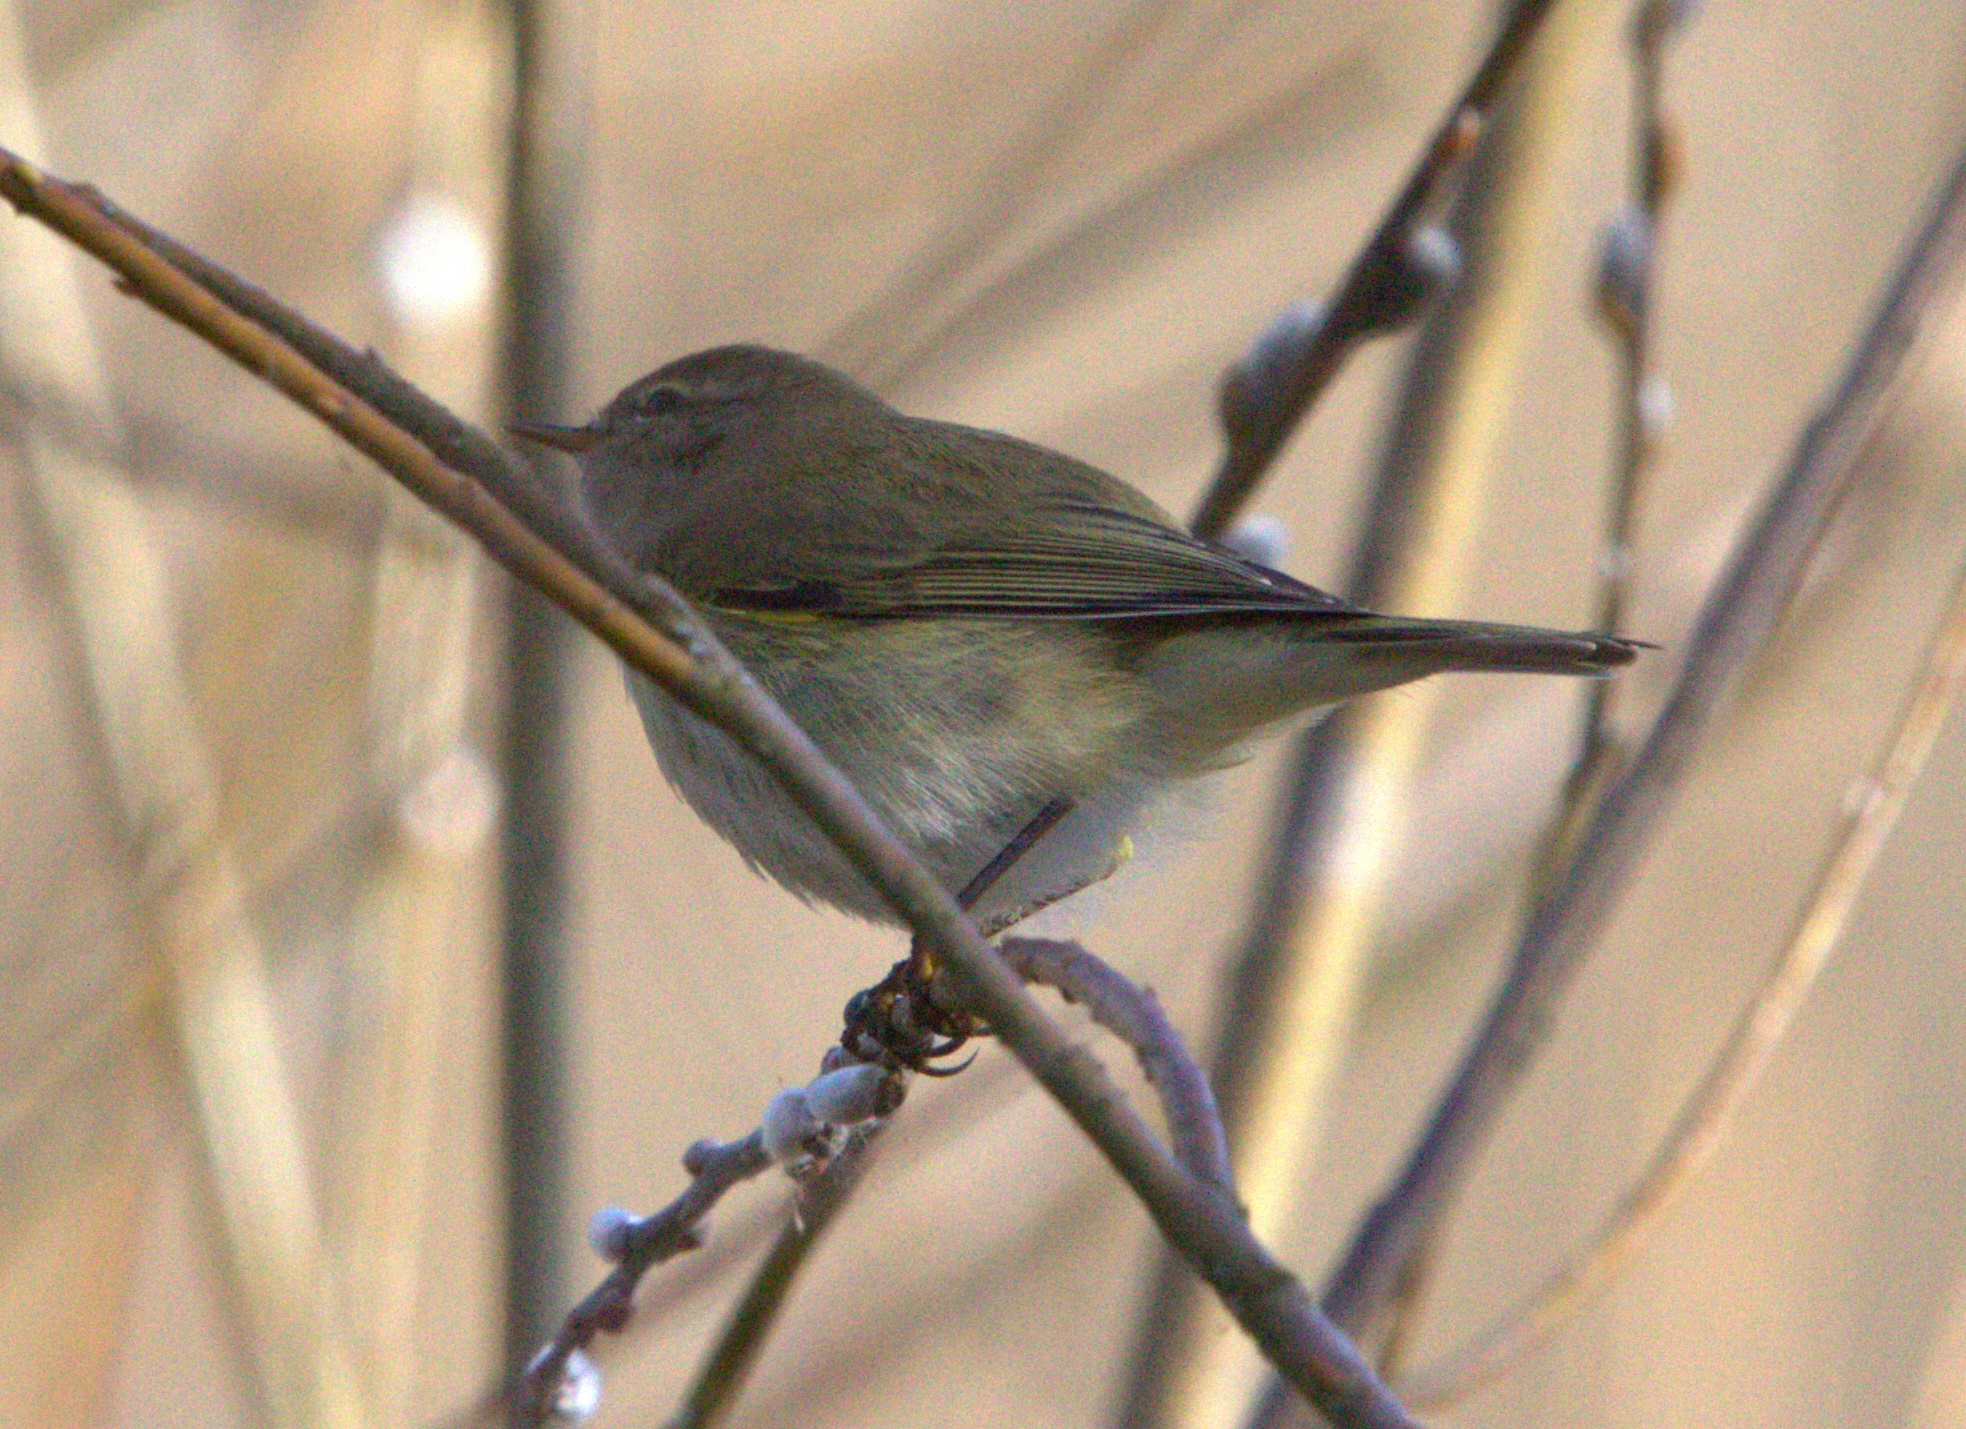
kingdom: Animalia
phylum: Chordata
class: Aves
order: Passeriformes
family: Phylloscopidae
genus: Phylloscopus
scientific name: Phylloscopus collybita
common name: Common chiffchaff
